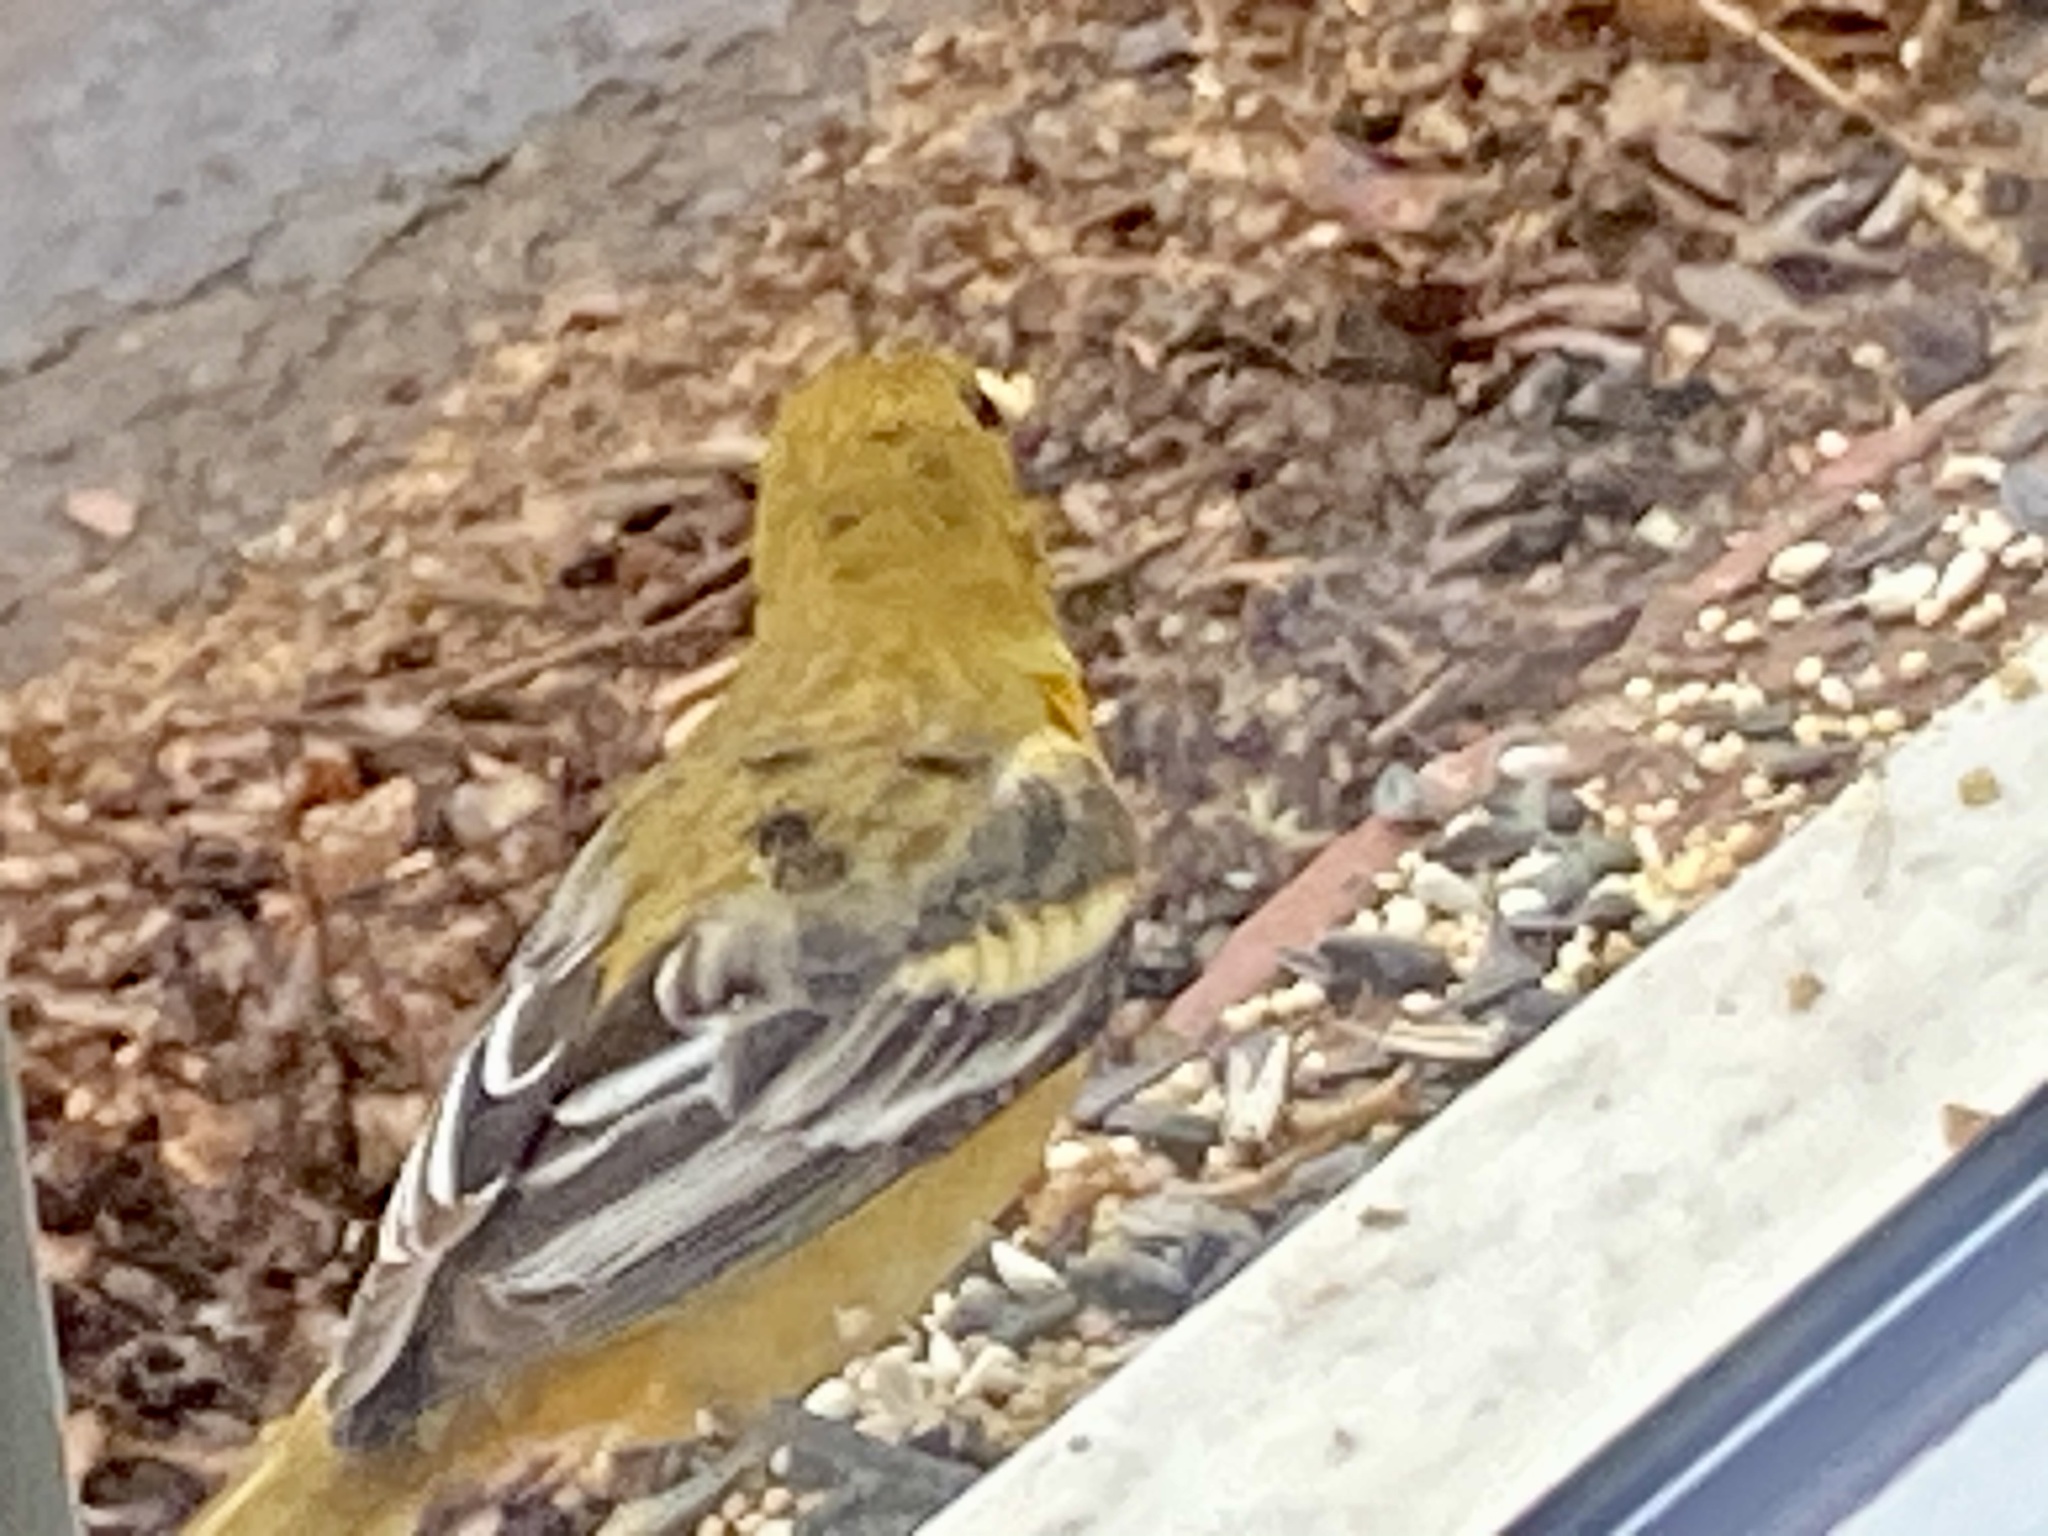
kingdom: Animalia
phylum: Chordata
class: Aves
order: Passeriformes
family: Icteridae
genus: Icterus
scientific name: Icterus galbula
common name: Baltimore oriole
